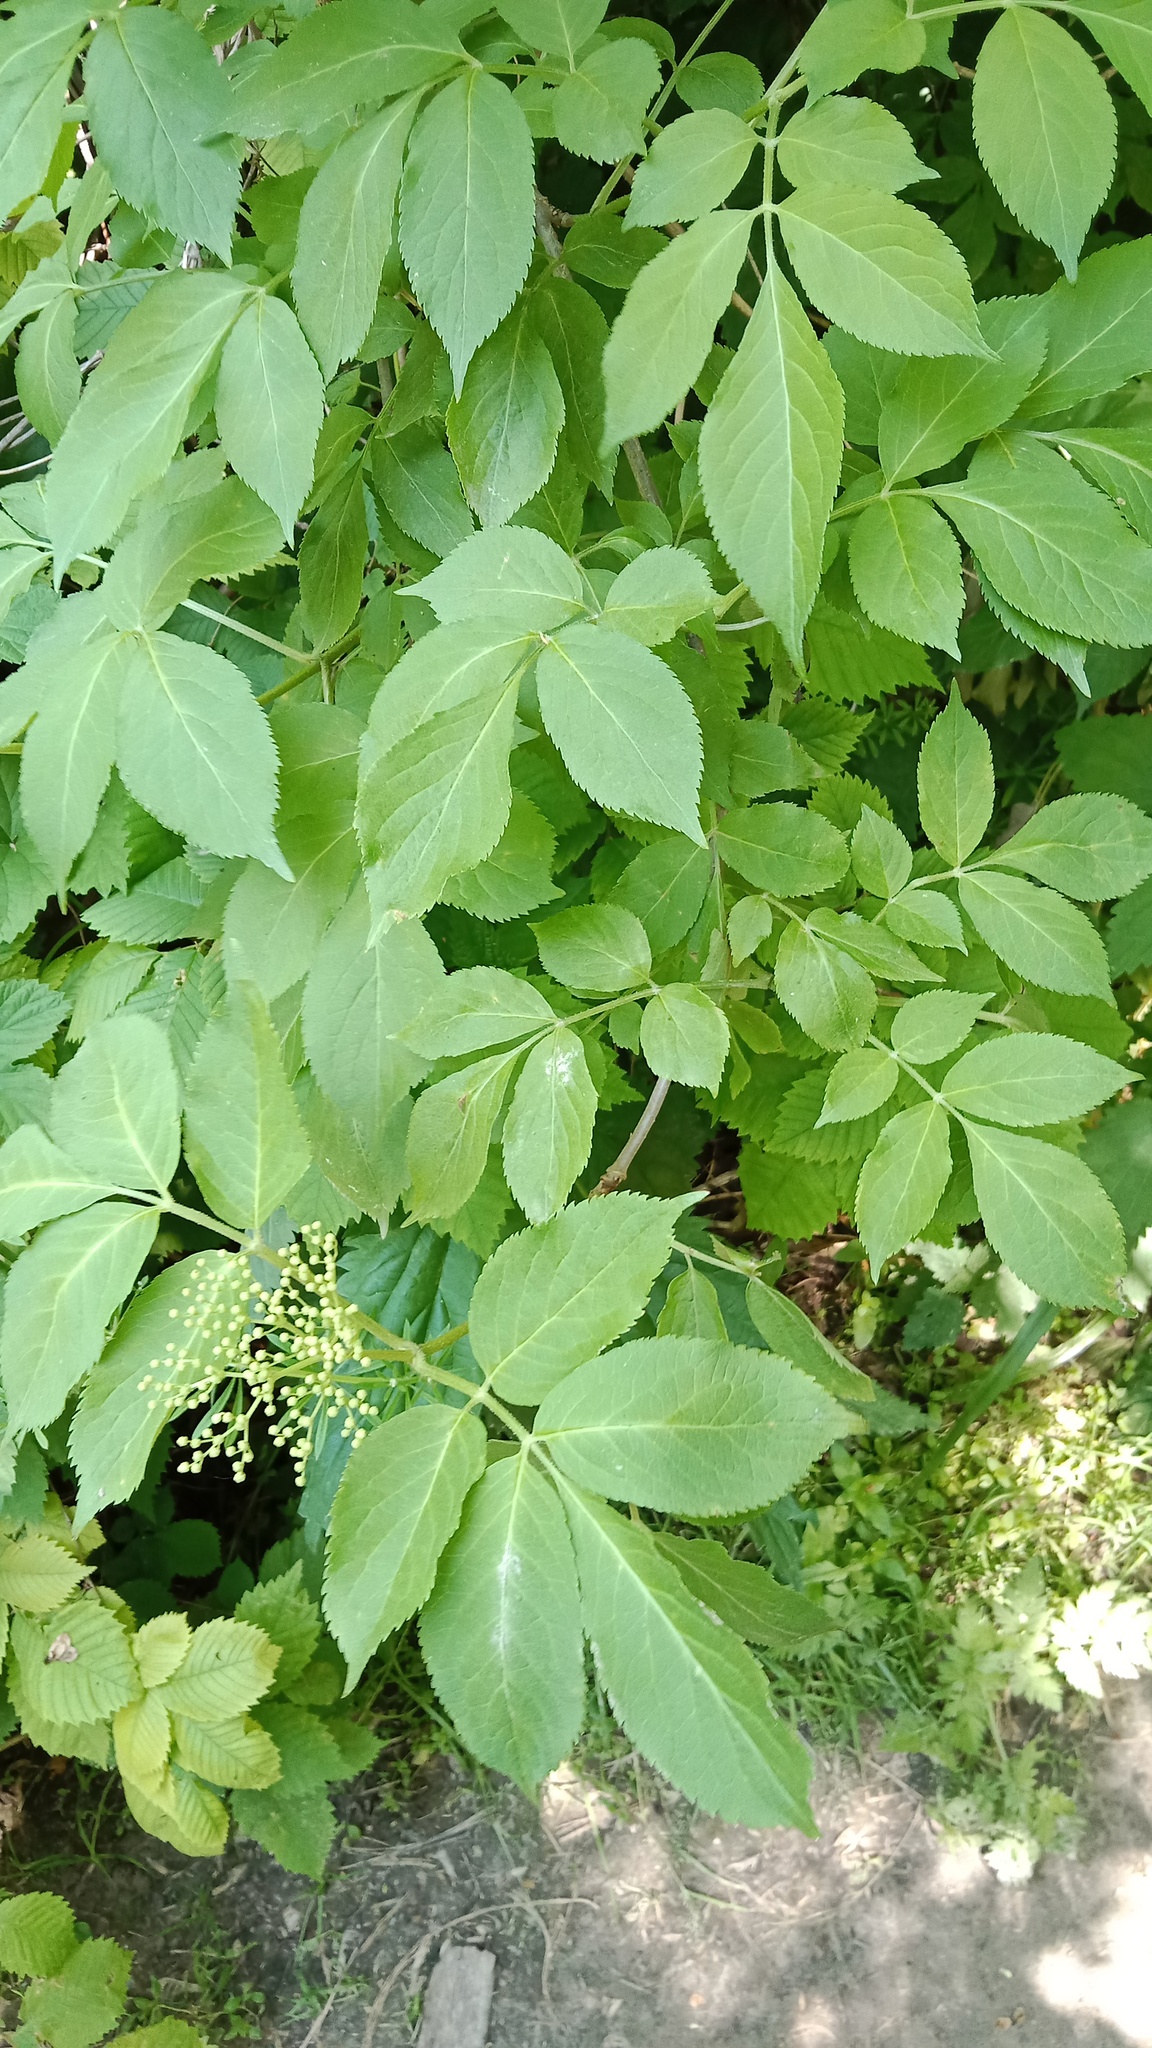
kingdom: Plantae
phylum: Tracheophyta
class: Magnoliopsida
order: Dipsacales
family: Viburnaceae
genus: Sambucus
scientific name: Sambucus nigra
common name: Elder
